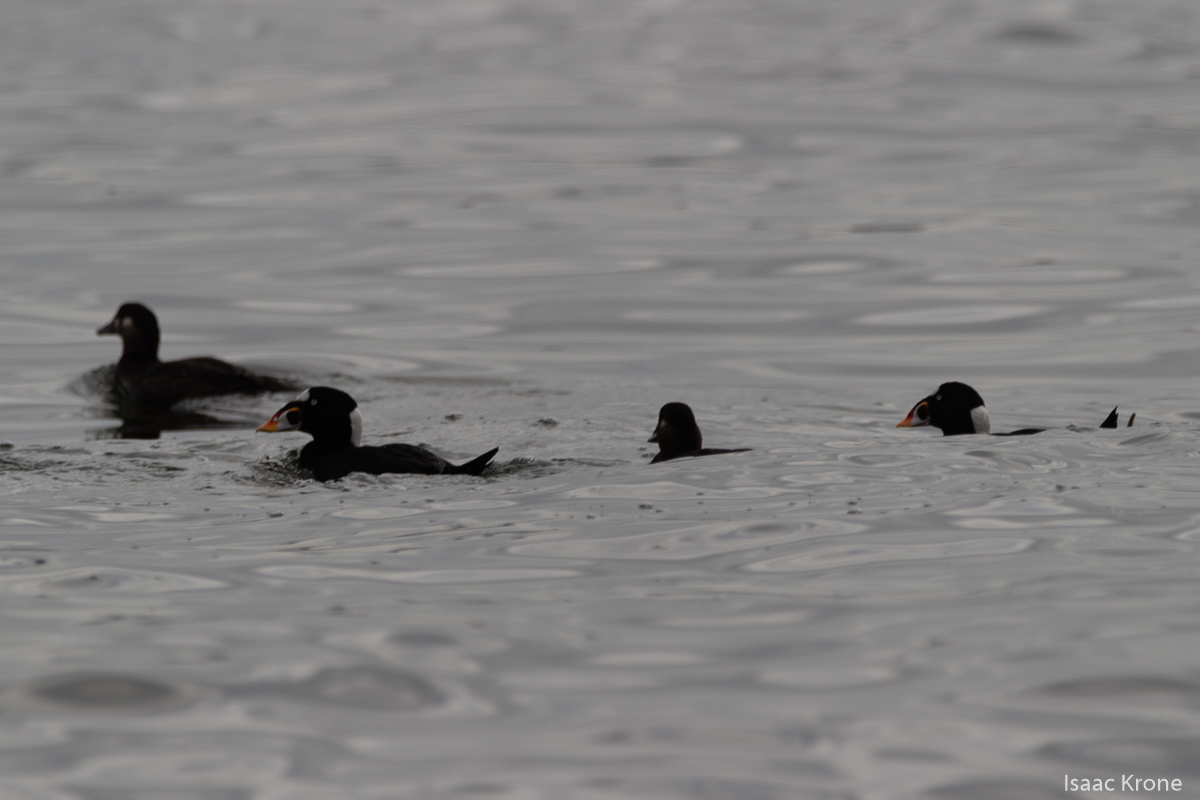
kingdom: Animalia
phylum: Chordata
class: Aves
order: Anseriformes
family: Anatidae
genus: Melanitta
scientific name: Melanitta perspicillata
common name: Surf scoter
